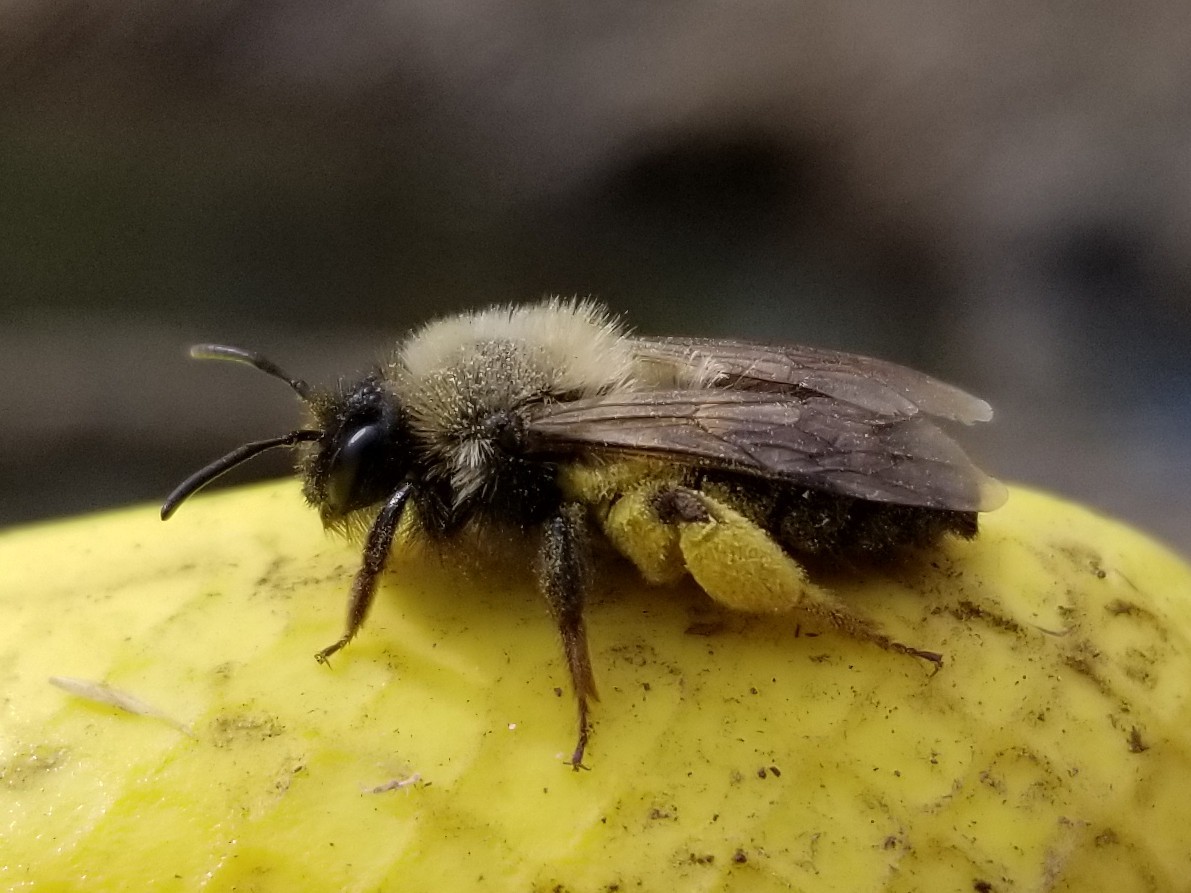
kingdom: Animalia
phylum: Arthropoda
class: Insecta
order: Hymenoptera
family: Andrenidae
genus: Andrena
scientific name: Andrena clarkella
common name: Clarke's mining bee
